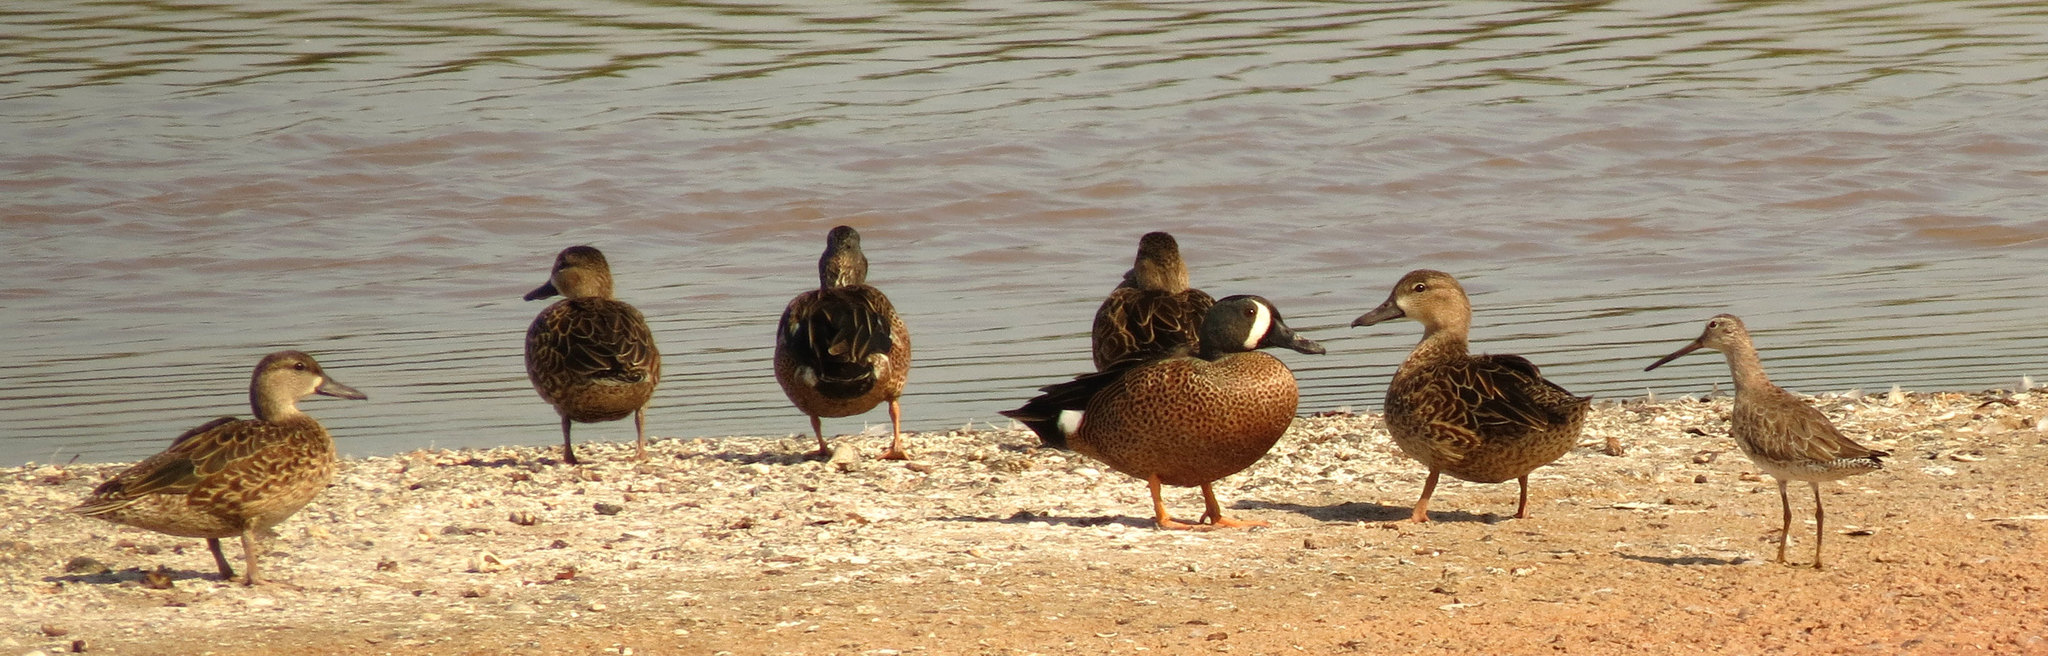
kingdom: Animalia
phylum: Chordata
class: Aves
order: Anseriformes
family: Anatidae
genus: Spatula
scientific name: Spatula discors
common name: Blue-winged teal
